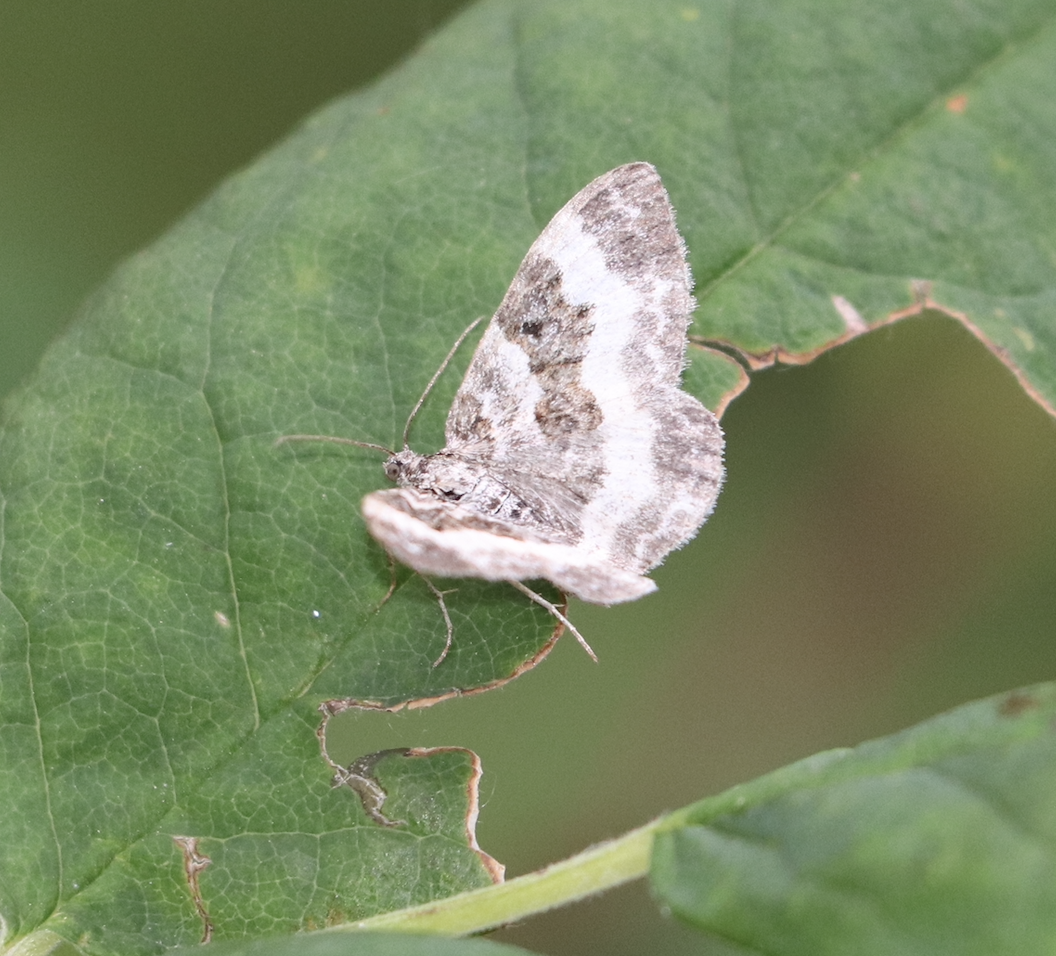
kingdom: Animalia
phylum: Arthropoda
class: Insecta
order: Lepidoptera
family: Geometridae
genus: Epirrhoe
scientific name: Epirrhoe alternata
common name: Common carpet
